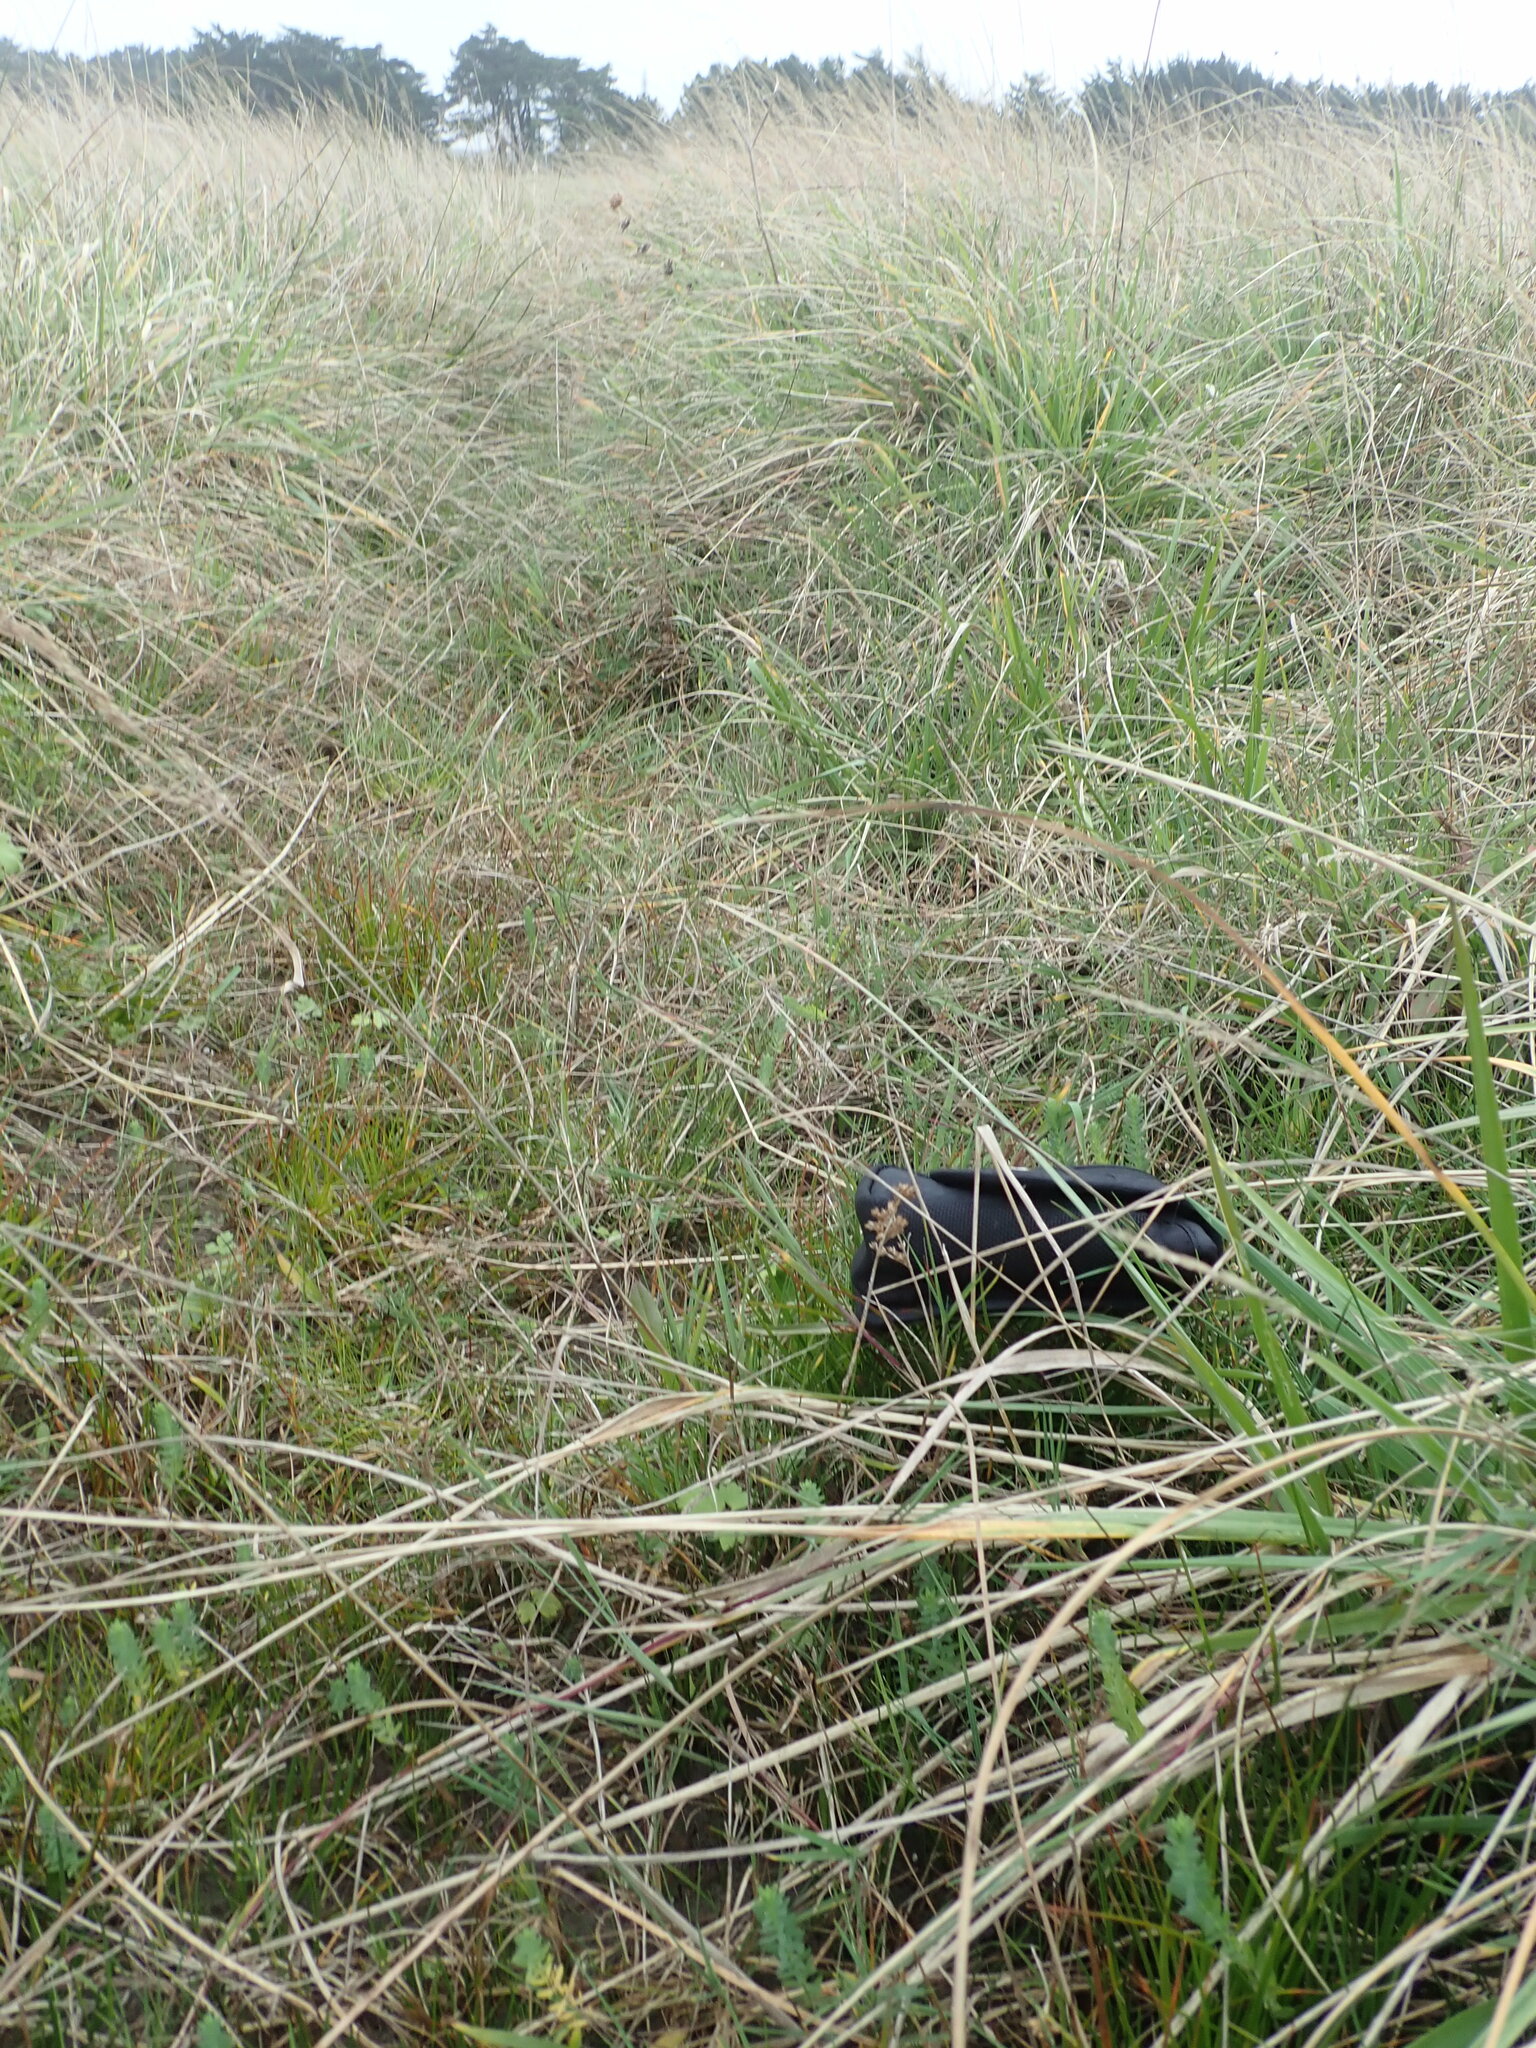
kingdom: Plantae
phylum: Tracheophyta
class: Liliopsida
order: Poales
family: Juncaceae
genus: Juncus
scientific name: Juncus caespiticius
